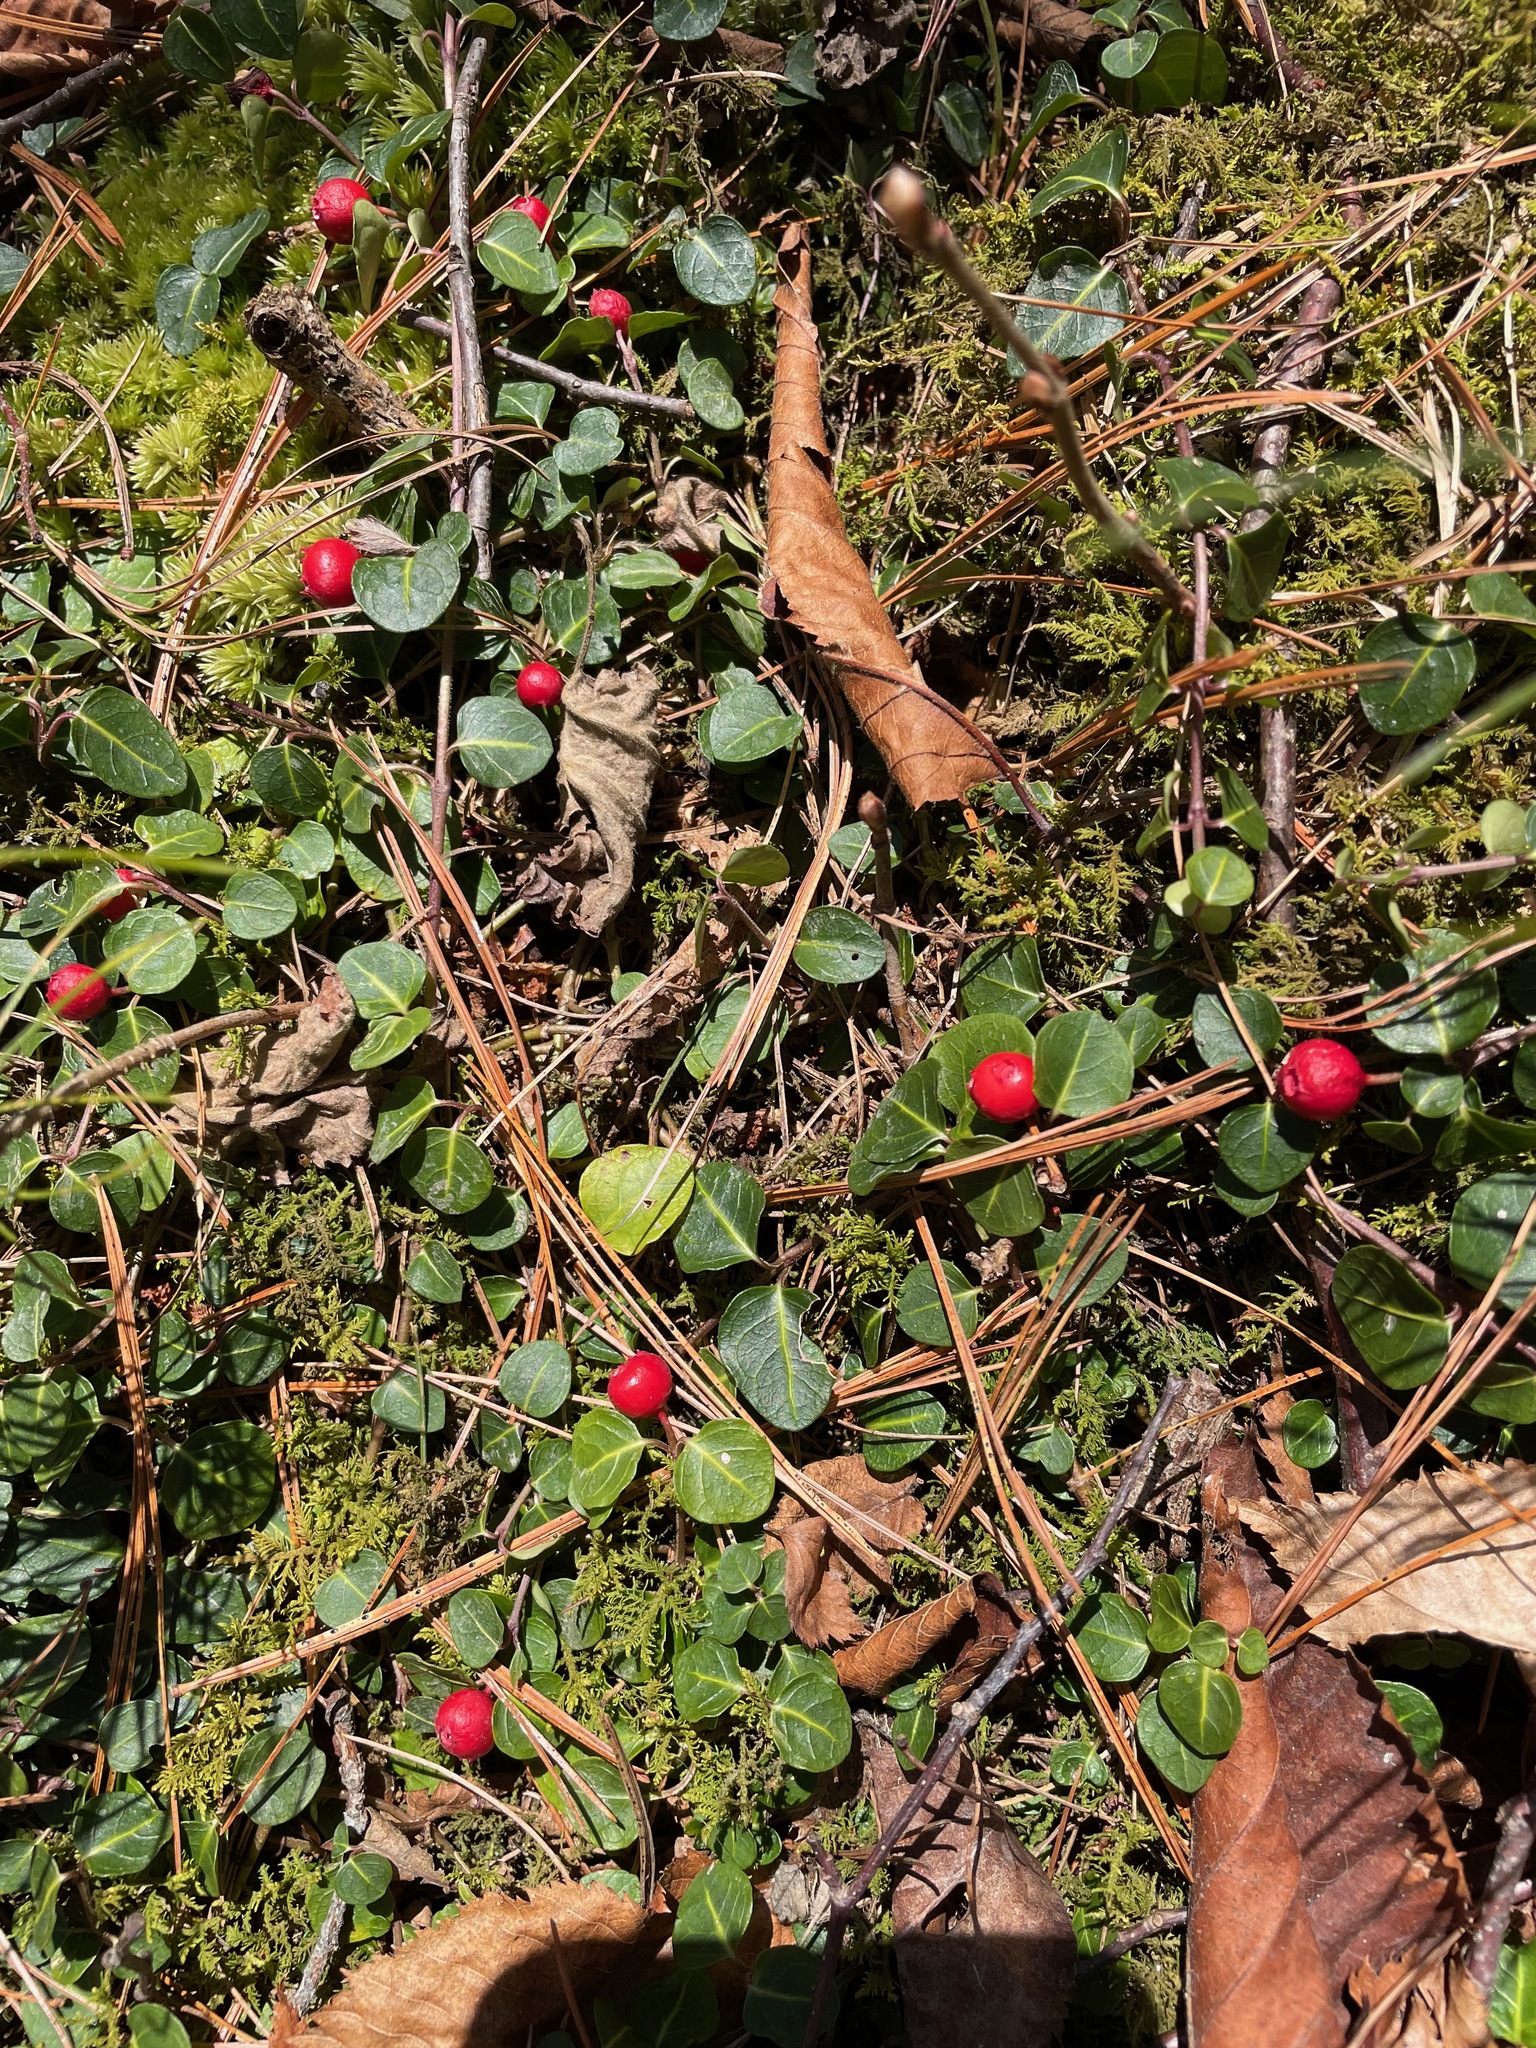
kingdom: Plantae
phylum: Tracheophyta
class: Magnoliopsida
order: Gentianales
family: Rubiaceae
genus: Mitchella
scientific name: Mitchella repens
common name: Partridge-berry
